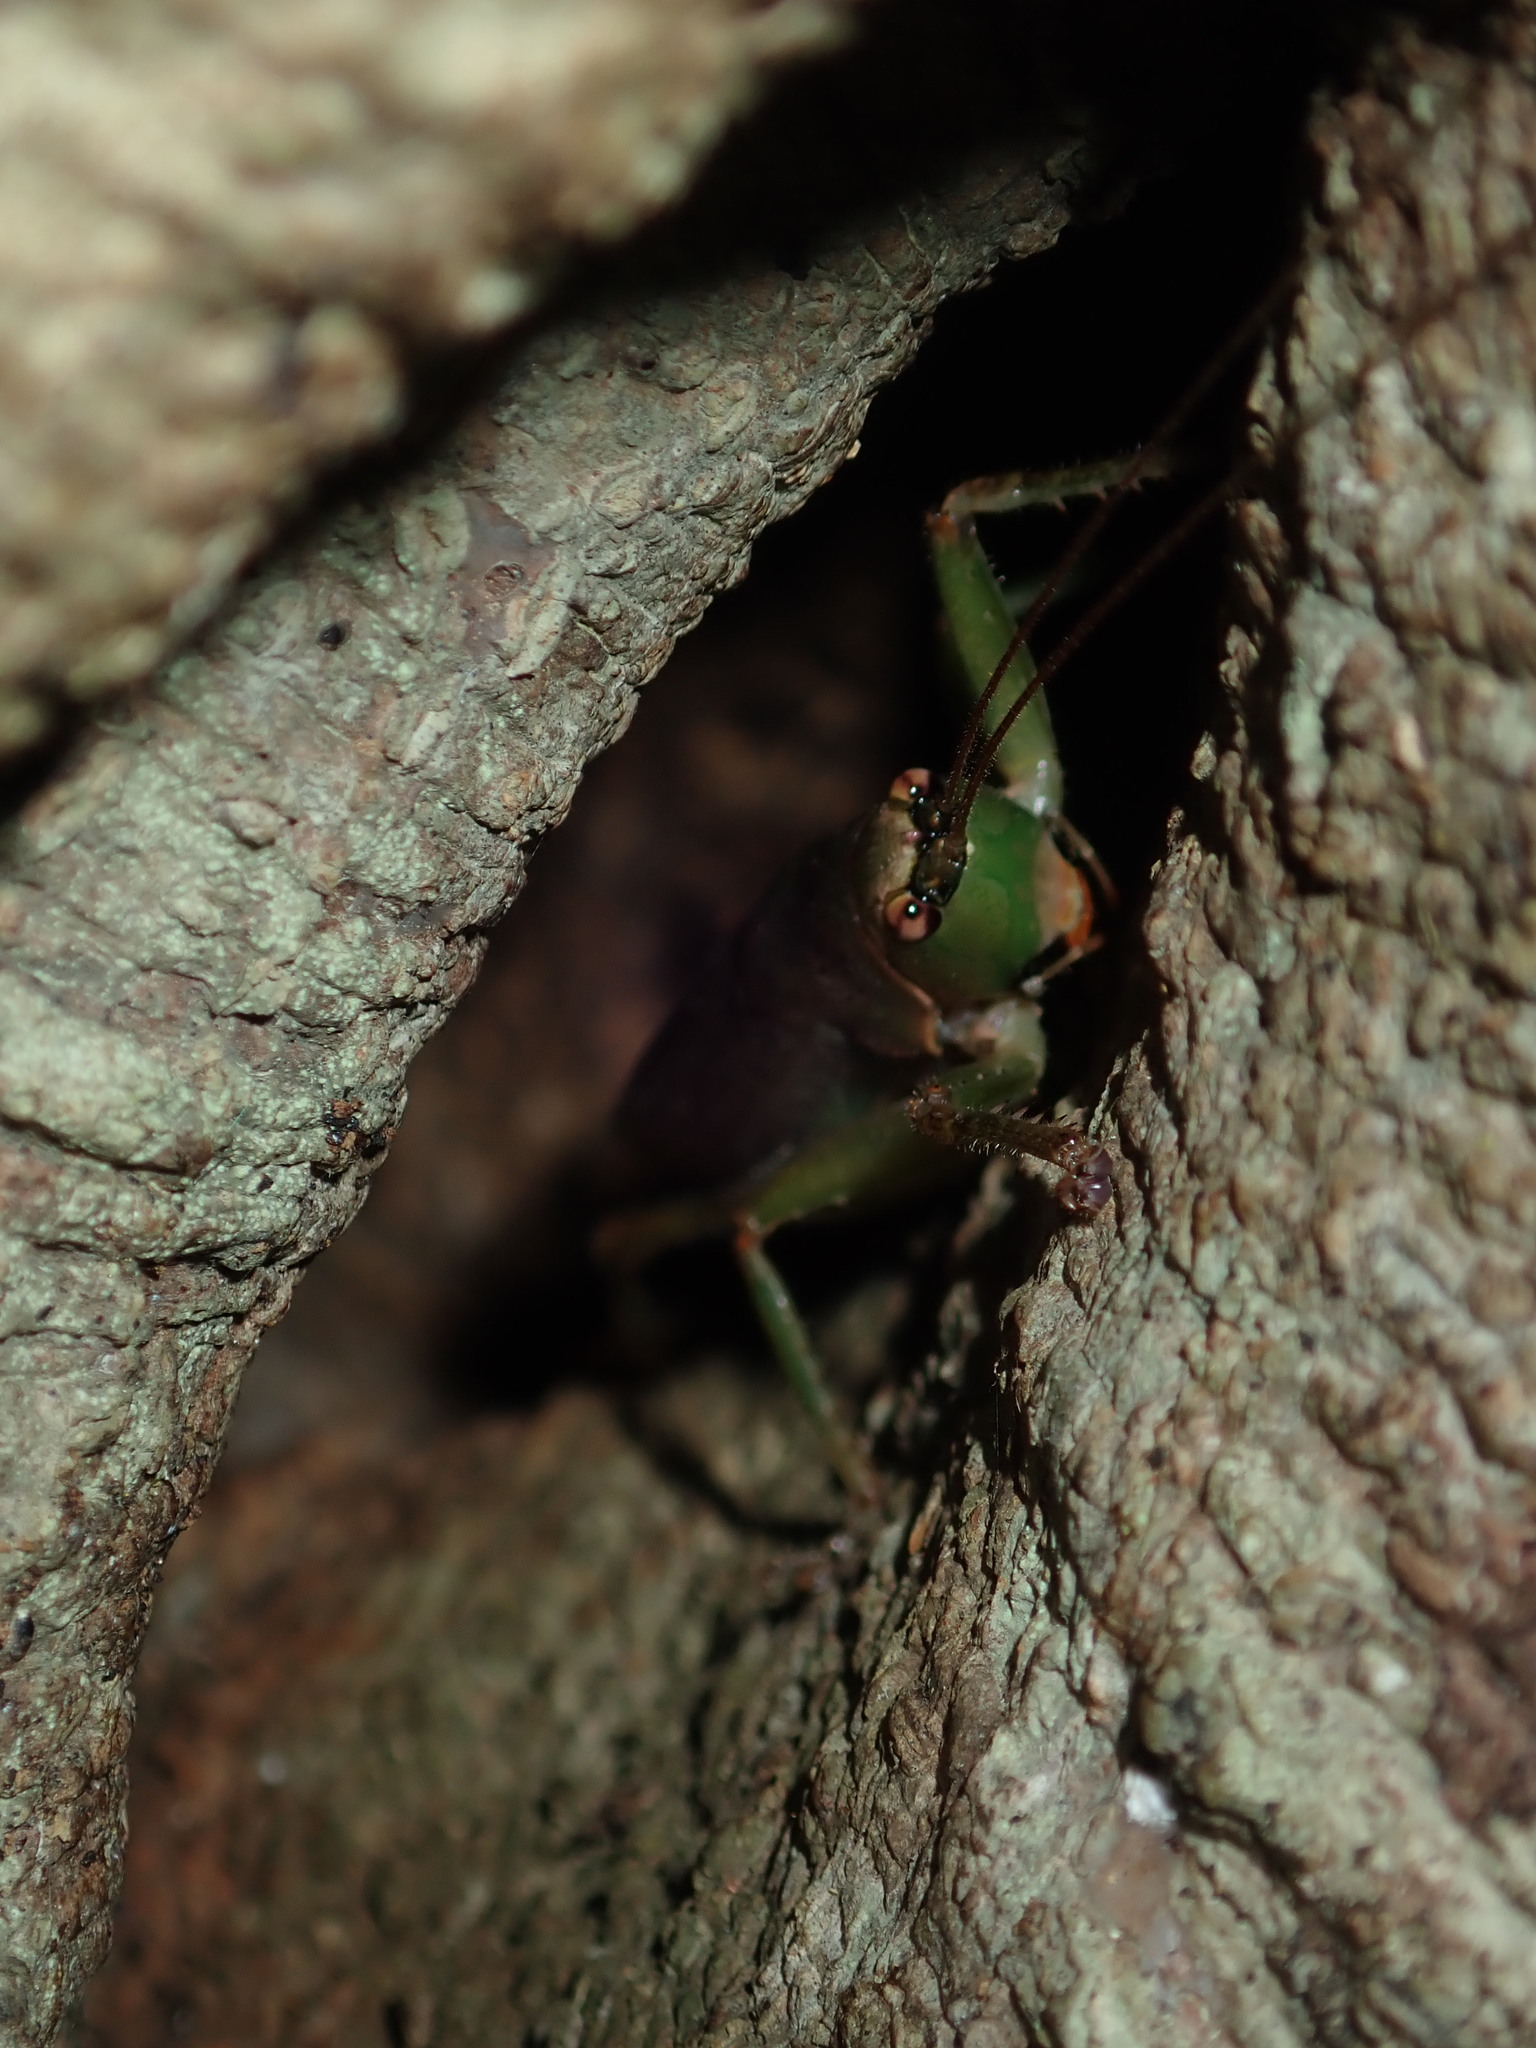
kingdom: Animalia
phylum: Arthropoda
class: Insecta
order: Orthoptera
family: Tettigoniidae
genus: Austrosalomona
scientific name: Austrosalomona falcata
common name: Olive-green coastal katydid
